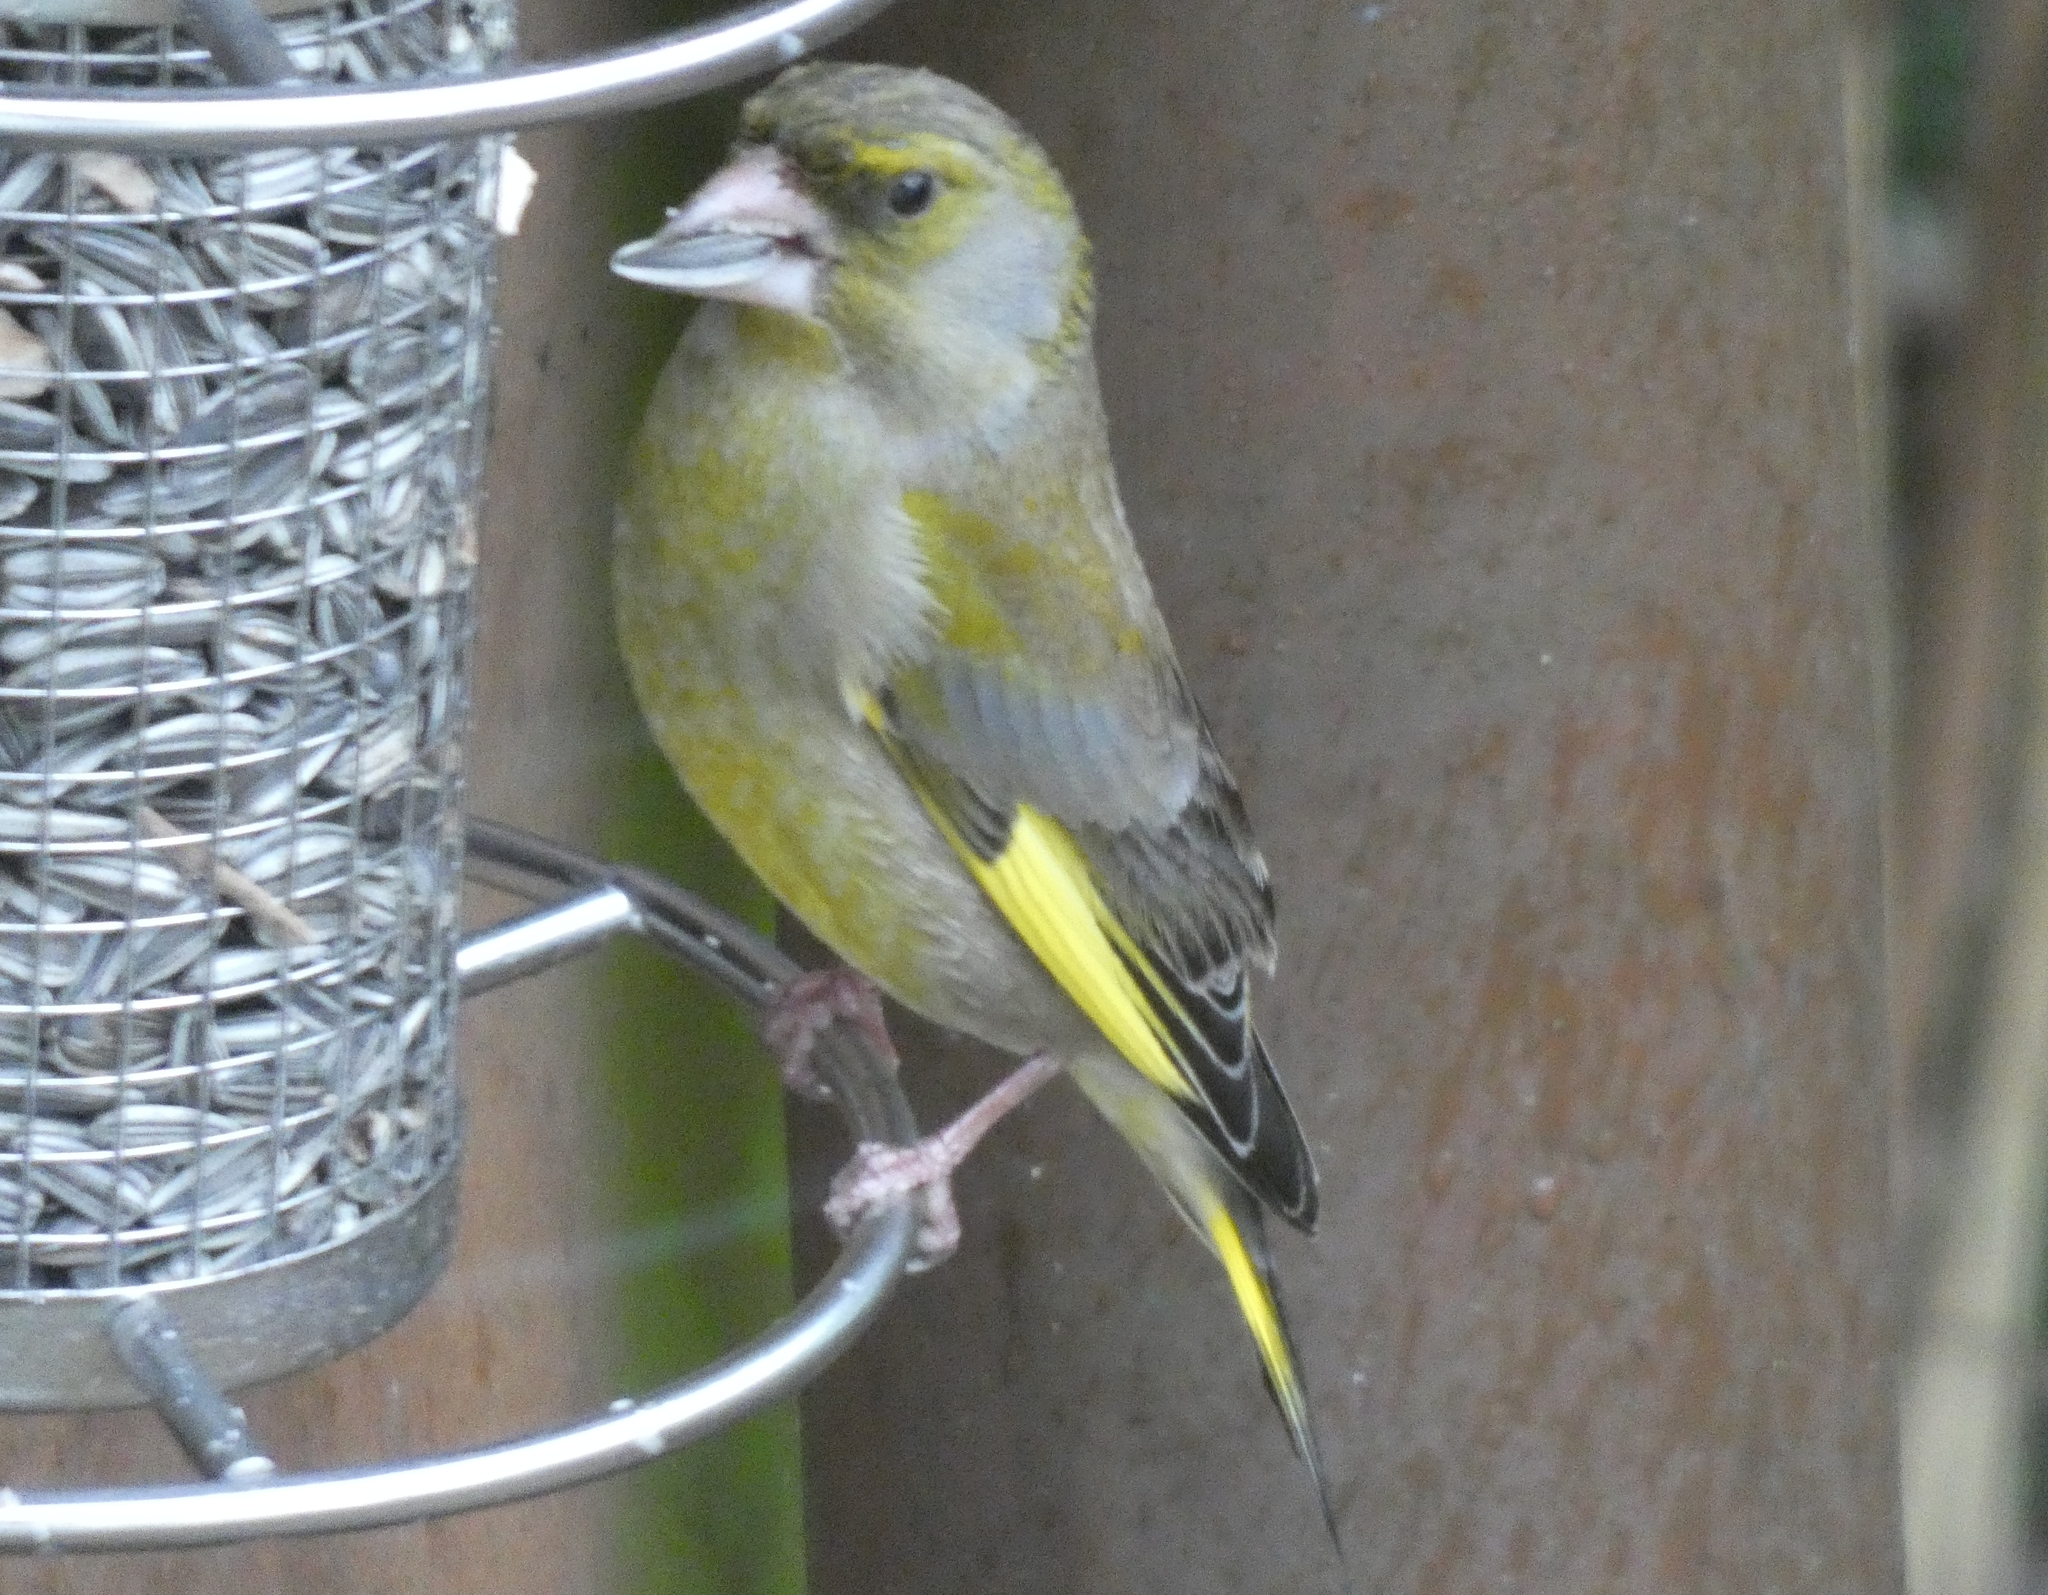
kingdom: Plantae
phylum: Tracheophyta
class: Liliopsida
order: Poales
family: Poaceae
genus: Chloris
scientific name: Chloris chloris
